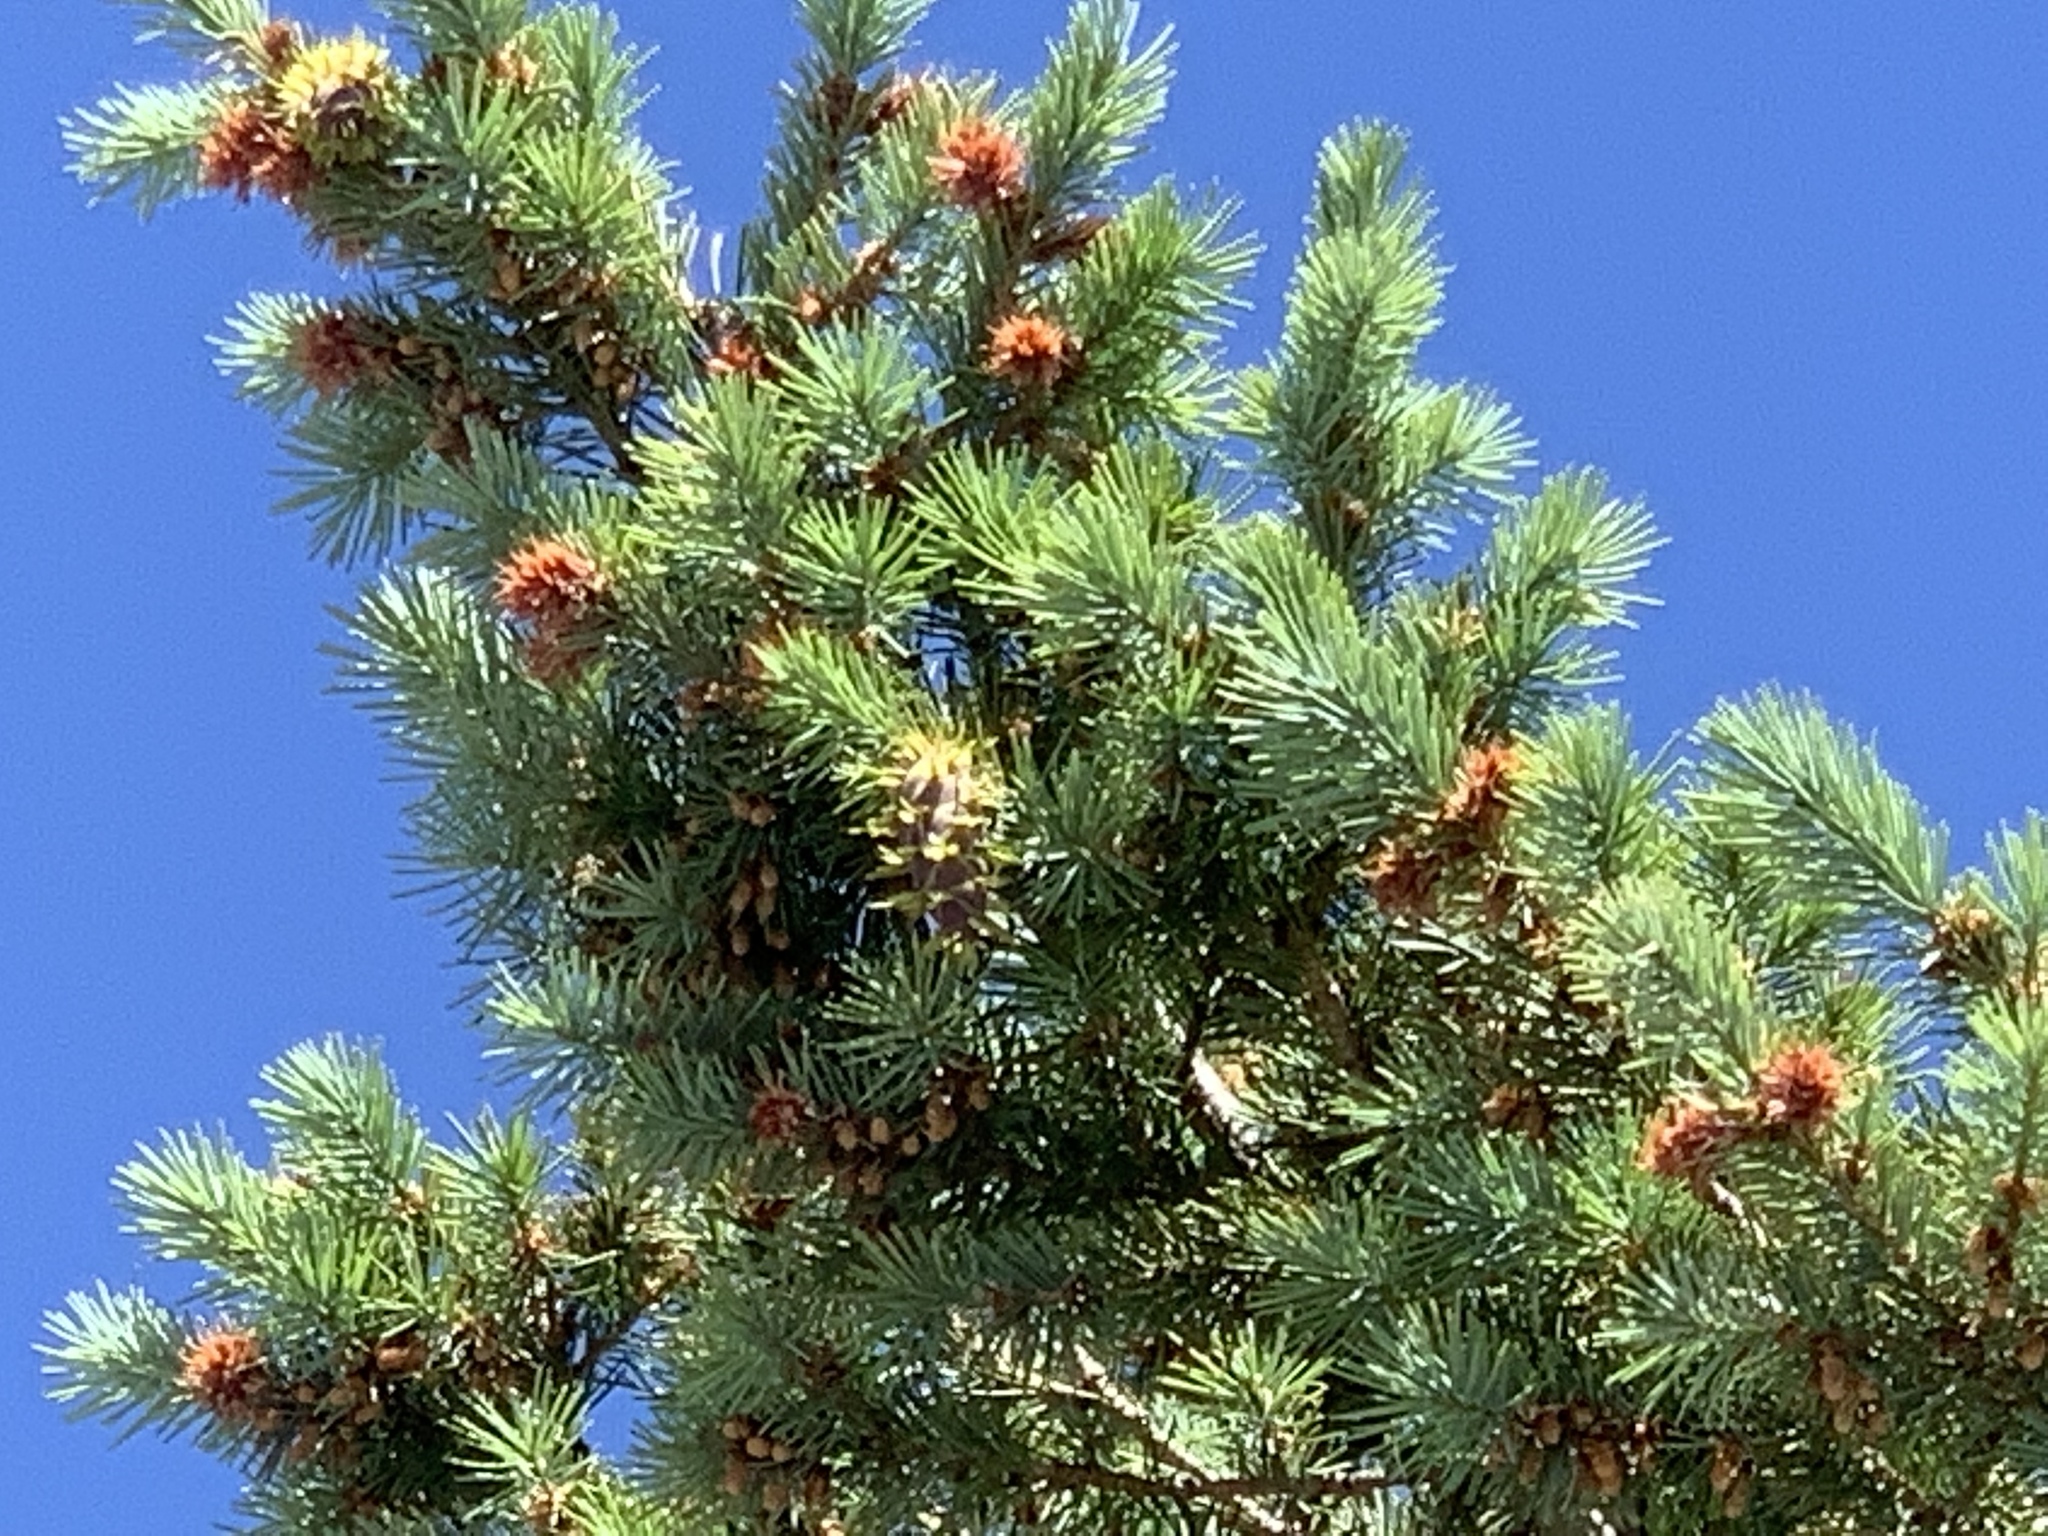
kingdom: Plantae
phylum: Tracheophyta
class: Pinopsida
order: Pinales
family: Pinaceae
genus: Pseudotsuga
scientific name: Pseudotsuga menziesii
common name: Douglas fir
